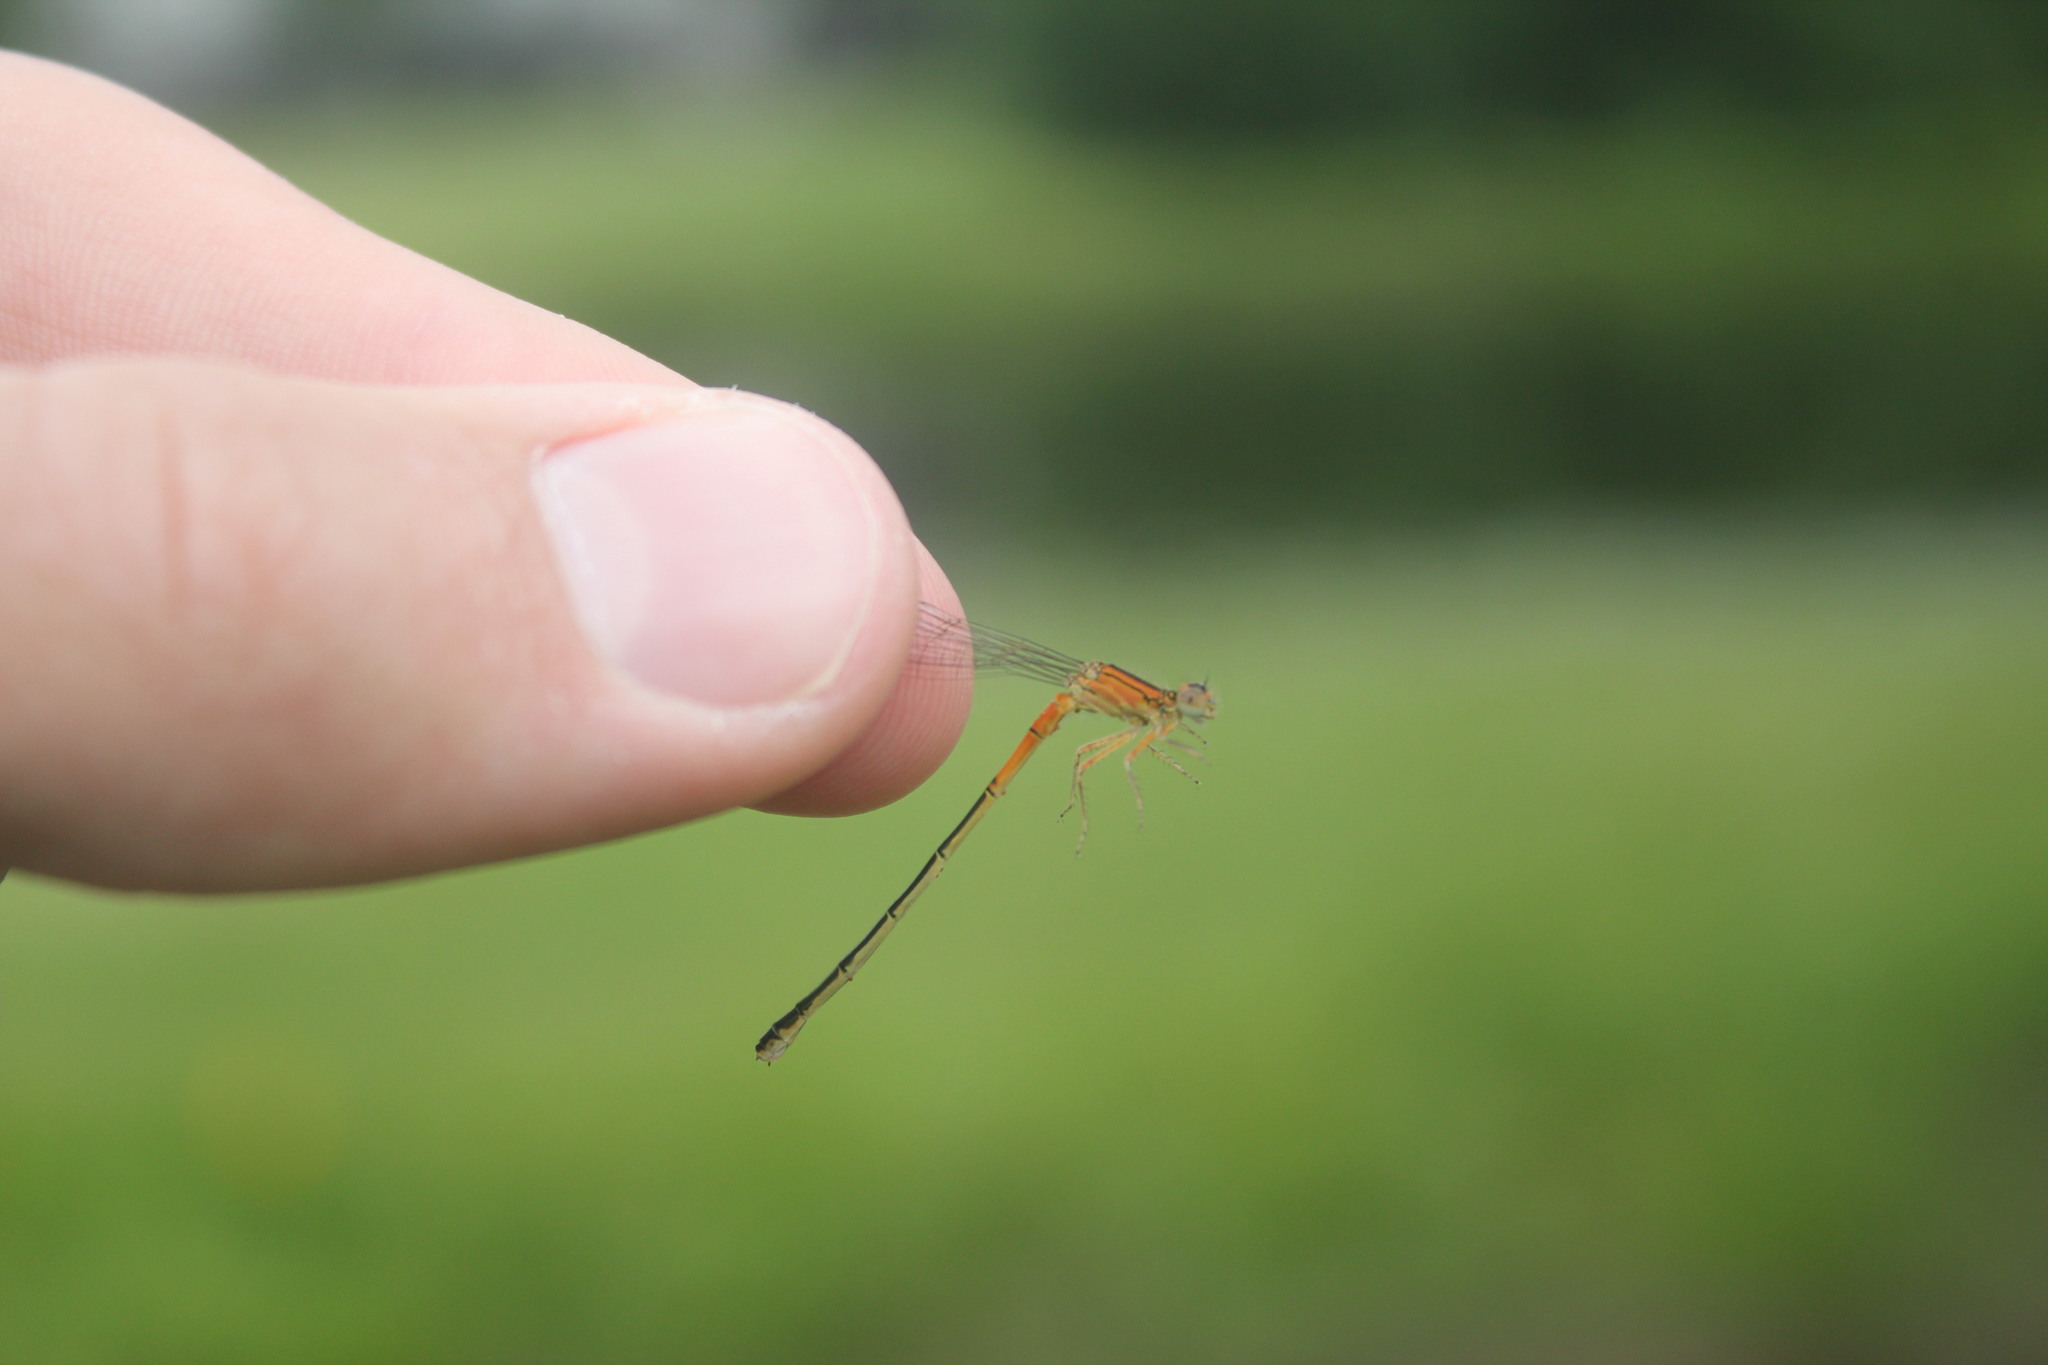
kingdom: Animalia
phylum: Arthropoda
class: Insecta
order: Odonata
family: Coenagrionidae
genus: Ischnura
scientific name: Ischnura verticalis
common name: Eastern forktail
